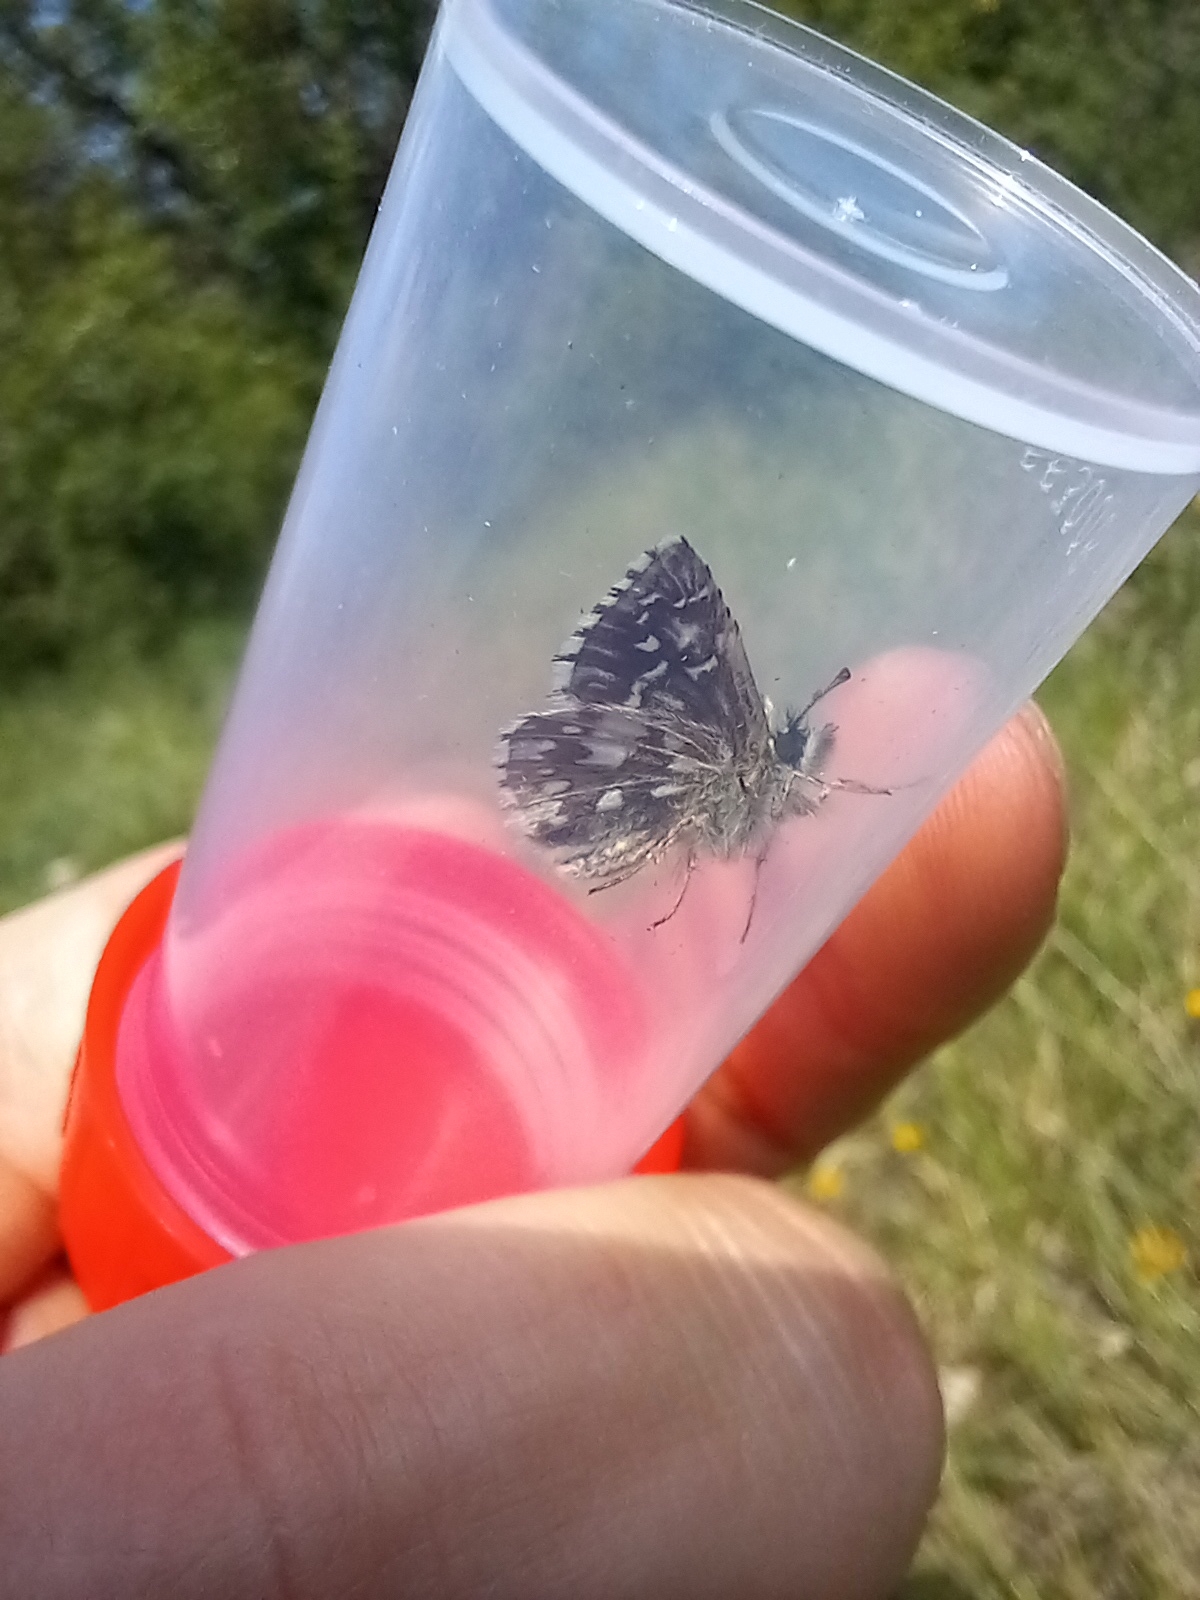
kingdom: Animalia
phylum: Arthropoda
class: Insecta
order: Lepidoptera
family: Hesperiidae
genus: Pyrgus
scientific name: Pyrgus malvae
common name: Grizzled skipper
